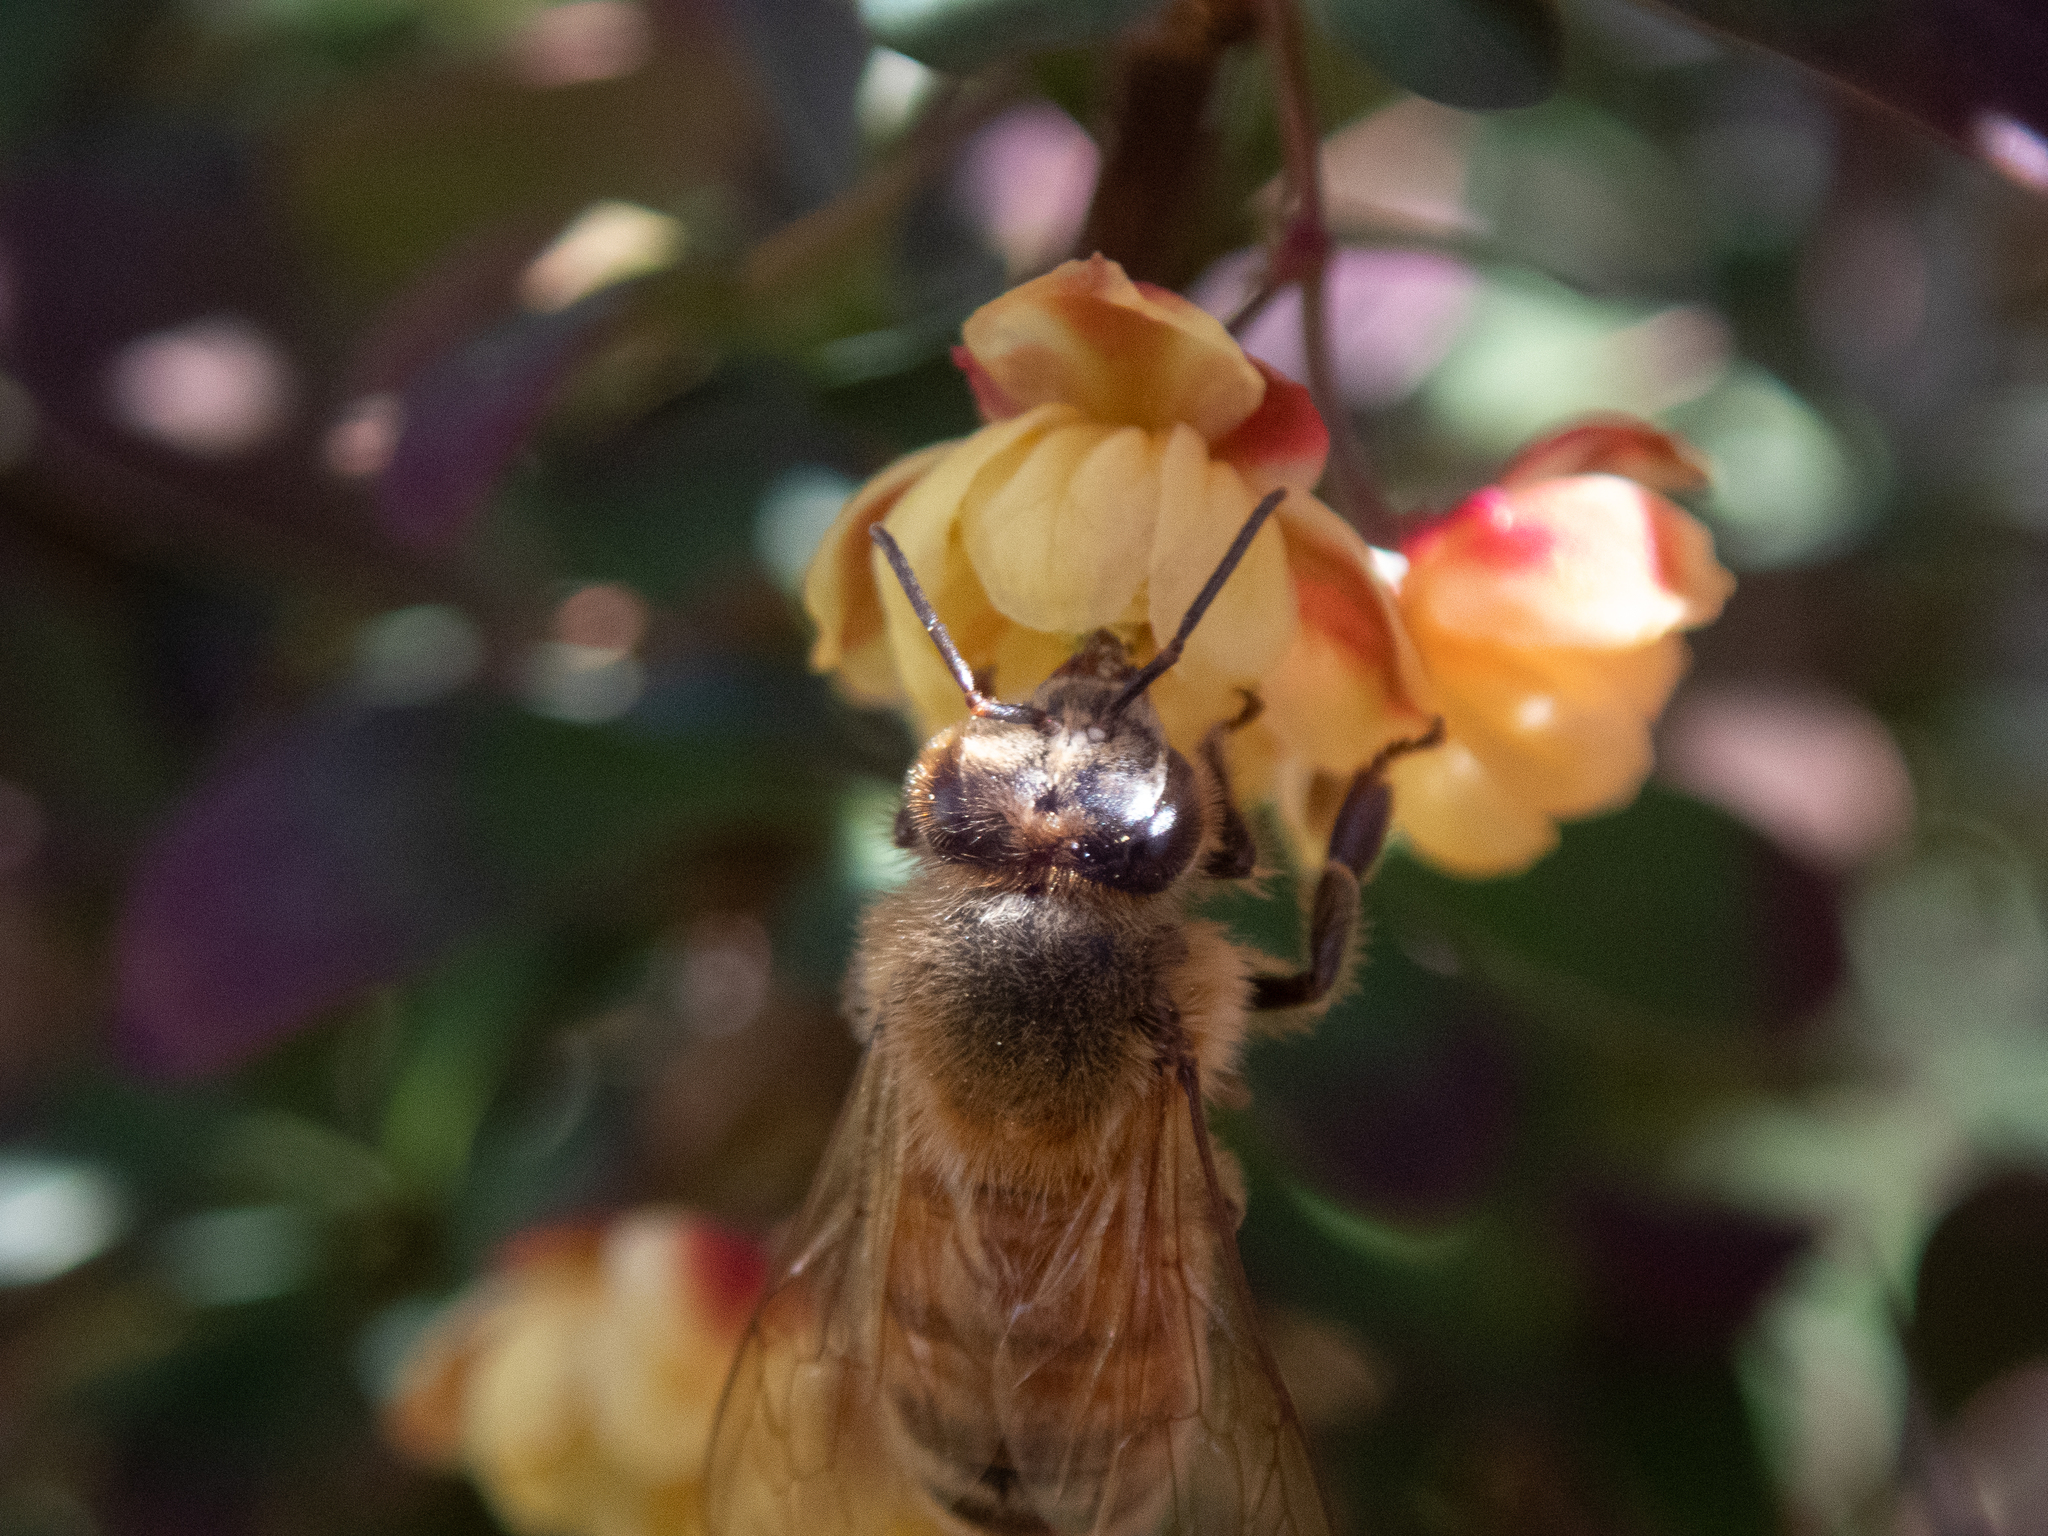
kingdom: Animalia
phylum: Arthropoda
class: Insecta
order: Hymenoptera
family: Apidae
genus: Apis
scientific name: Apis mellifera
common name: Honey bee
